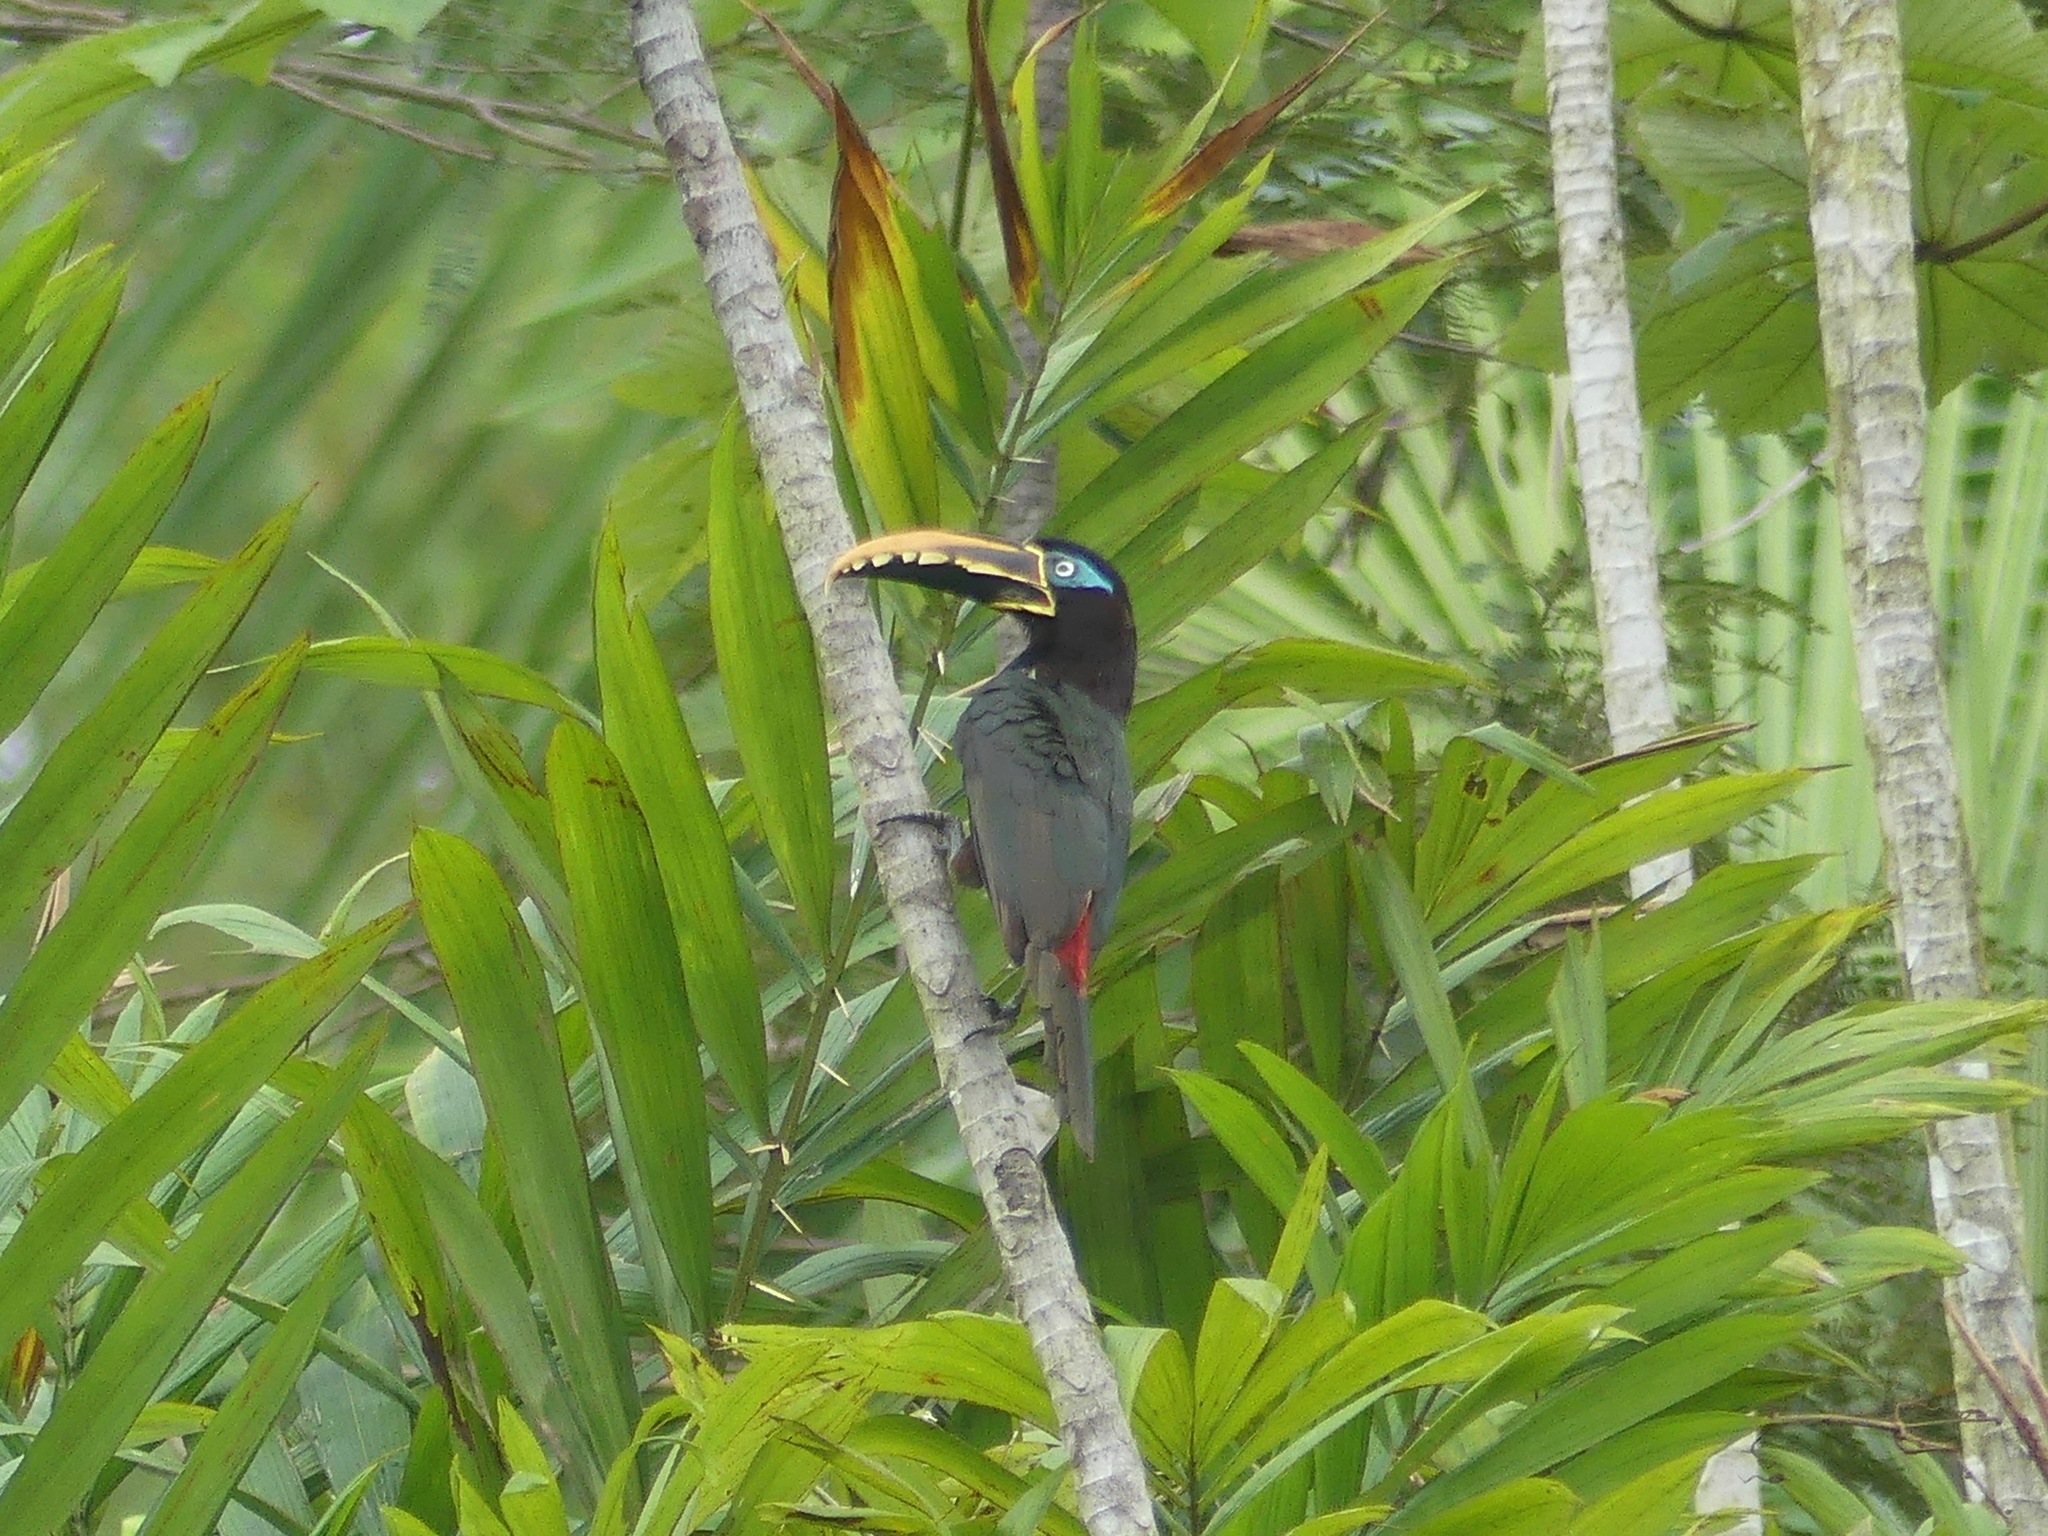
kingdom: Animalia
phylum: Chordata
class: Aves
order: Piciformes
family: Ramphastidae
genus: Pteroglossus
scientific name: Pteroglossus castanotis
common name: Chestnut-eared aracari
